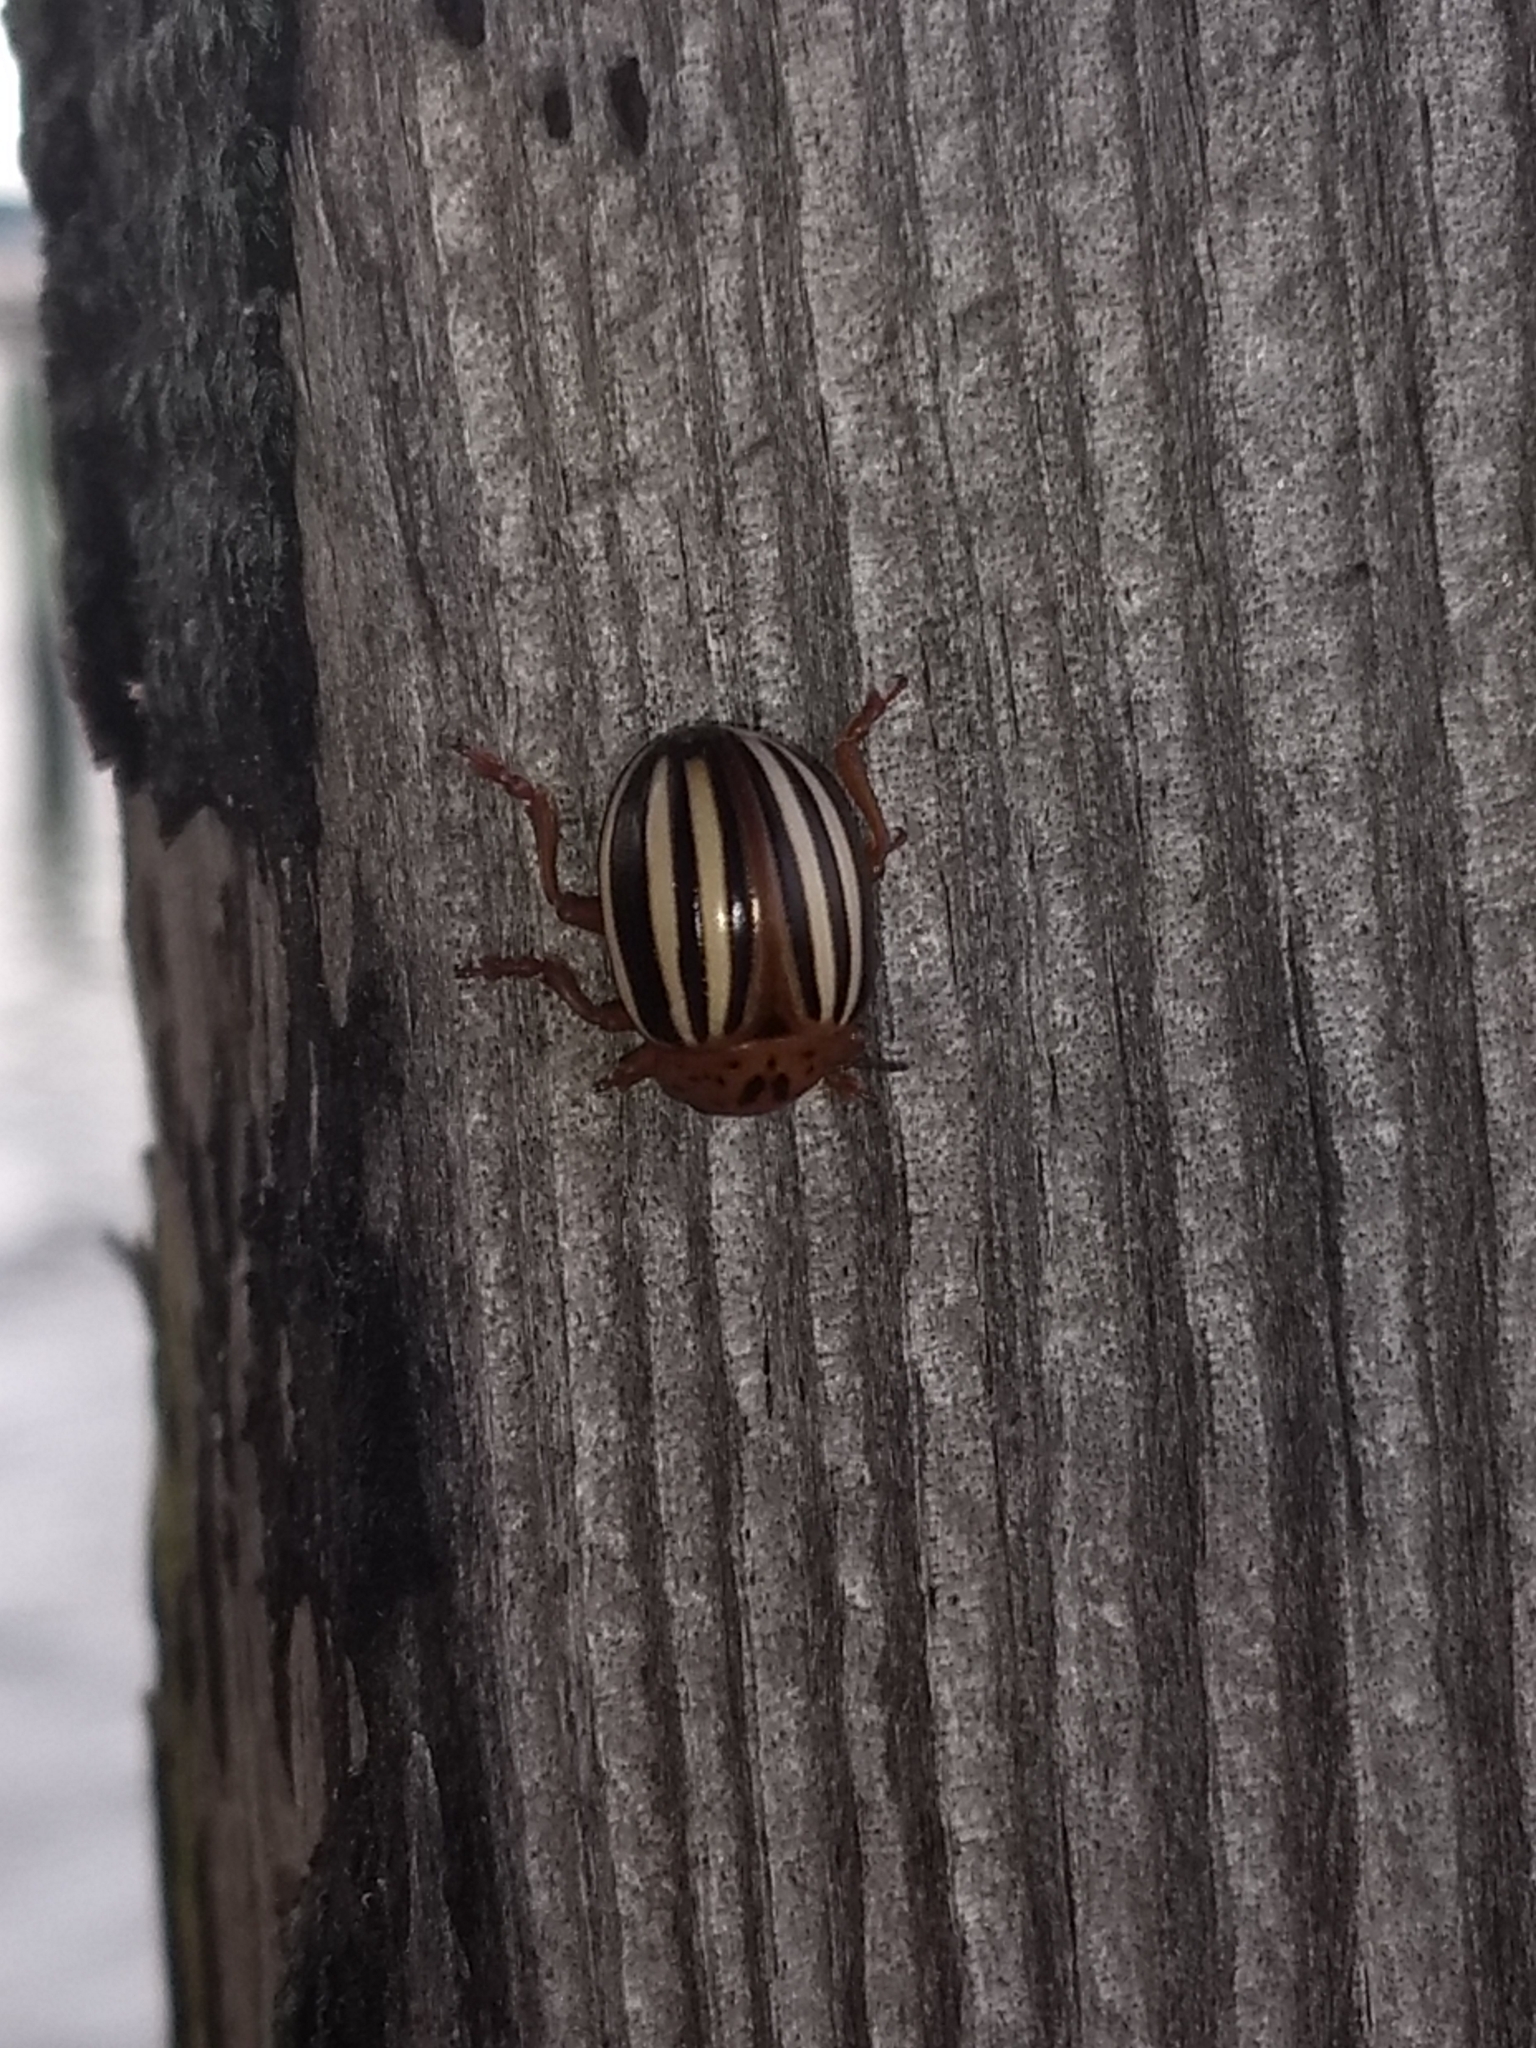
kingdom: Animalia
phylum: Arthropoda
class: Insecta
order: Coleoptera
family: Chrysomelidae
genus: Leptinotarsa
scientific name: Leptinotarsa juncta
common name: False potato beetle
